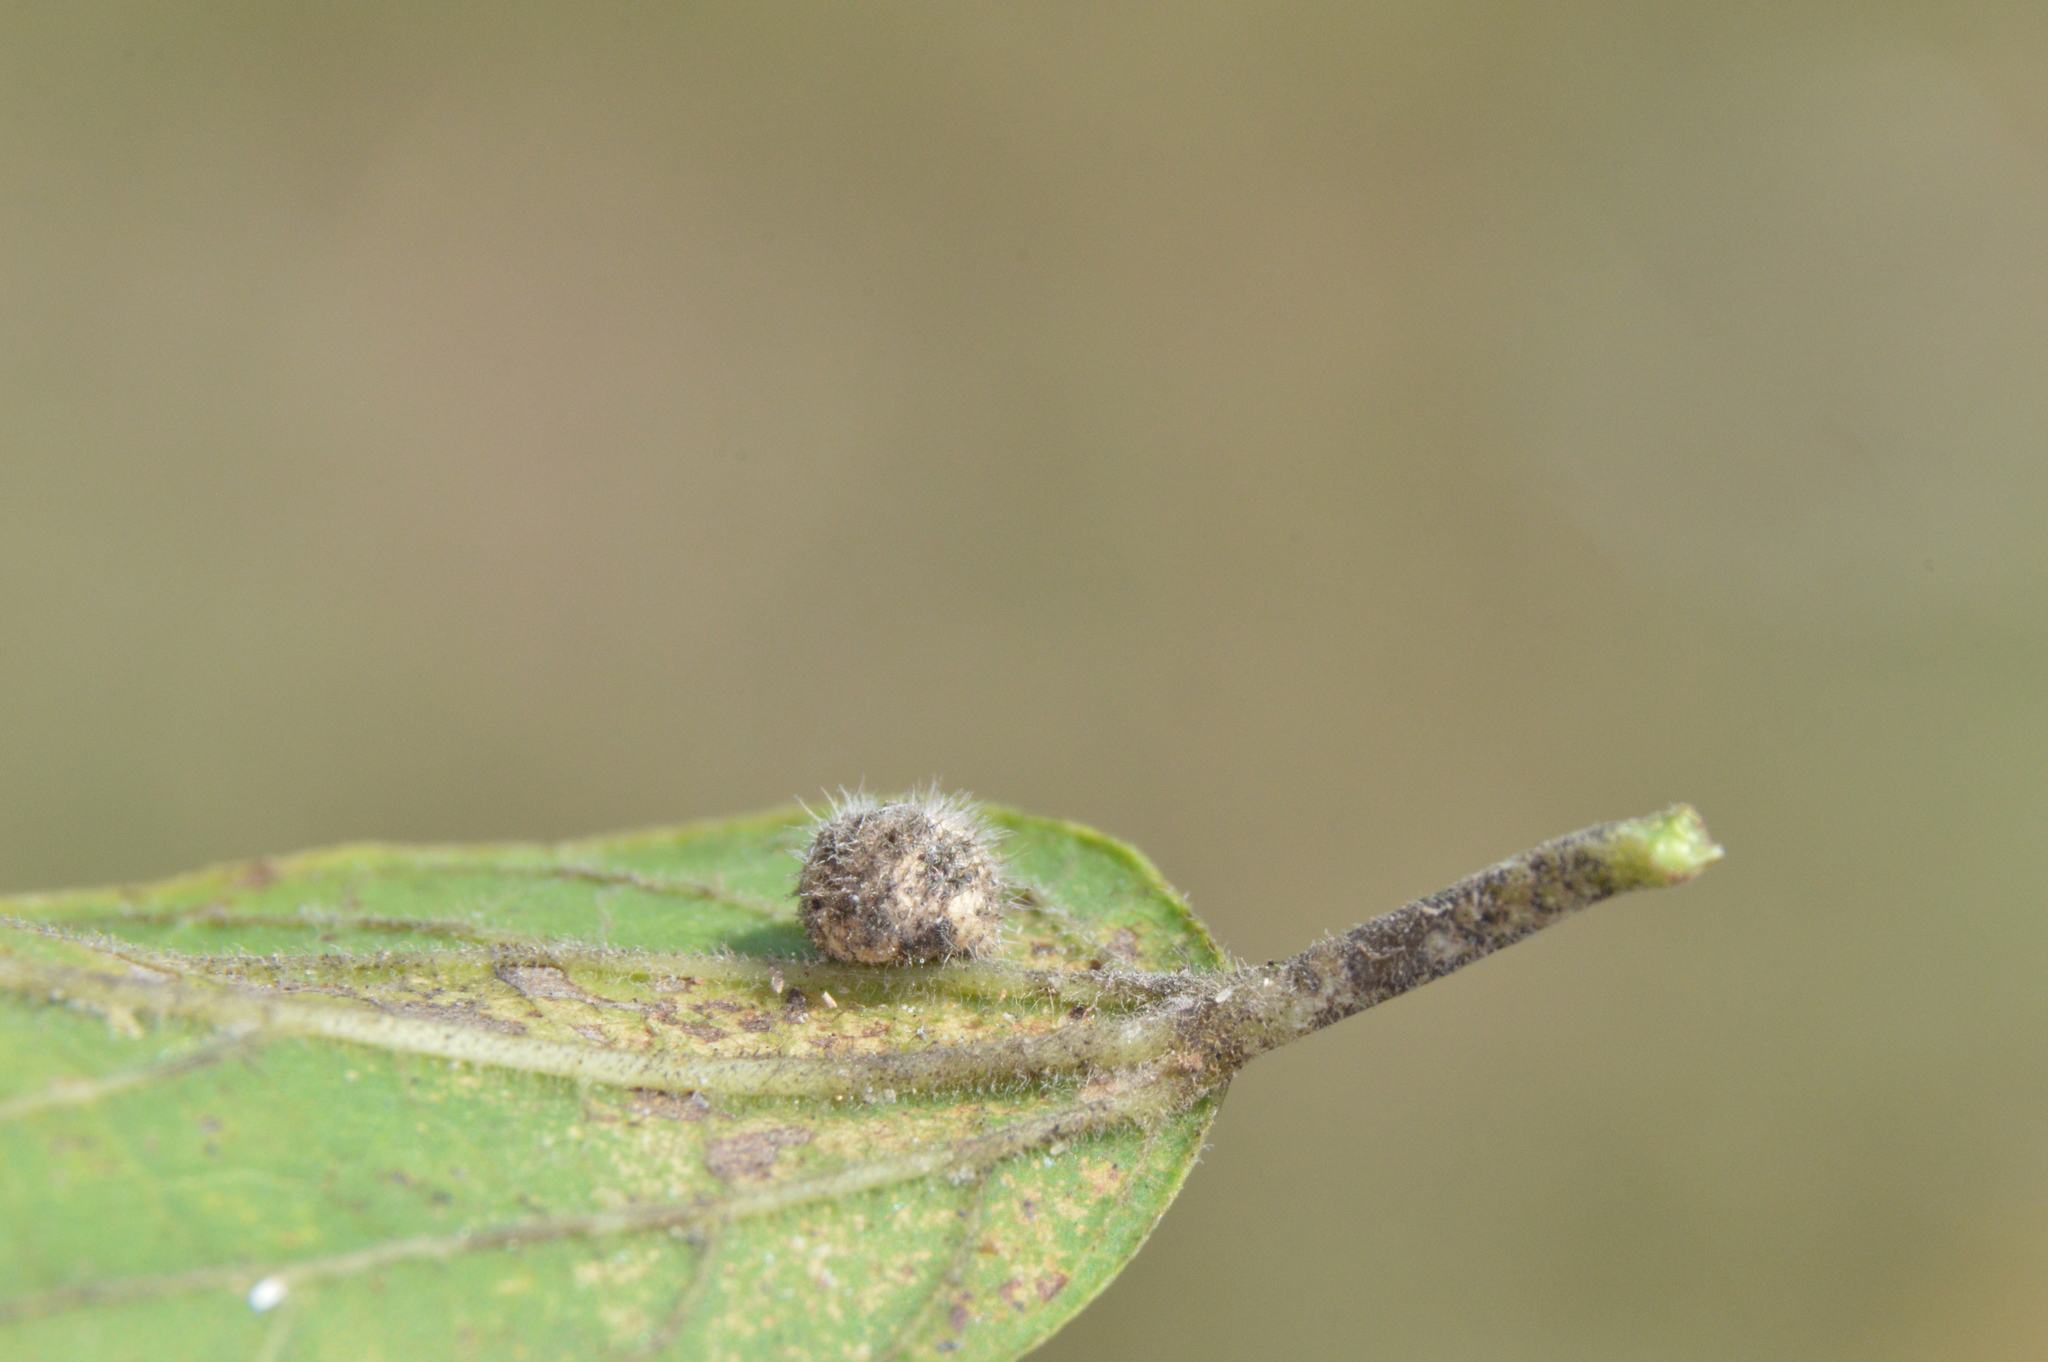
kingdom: Animalia
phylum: Arthropoda
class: Insecta
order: Diptera
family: Cecidomyiidae
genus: Celticecis
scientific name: Celticecis pubescens
